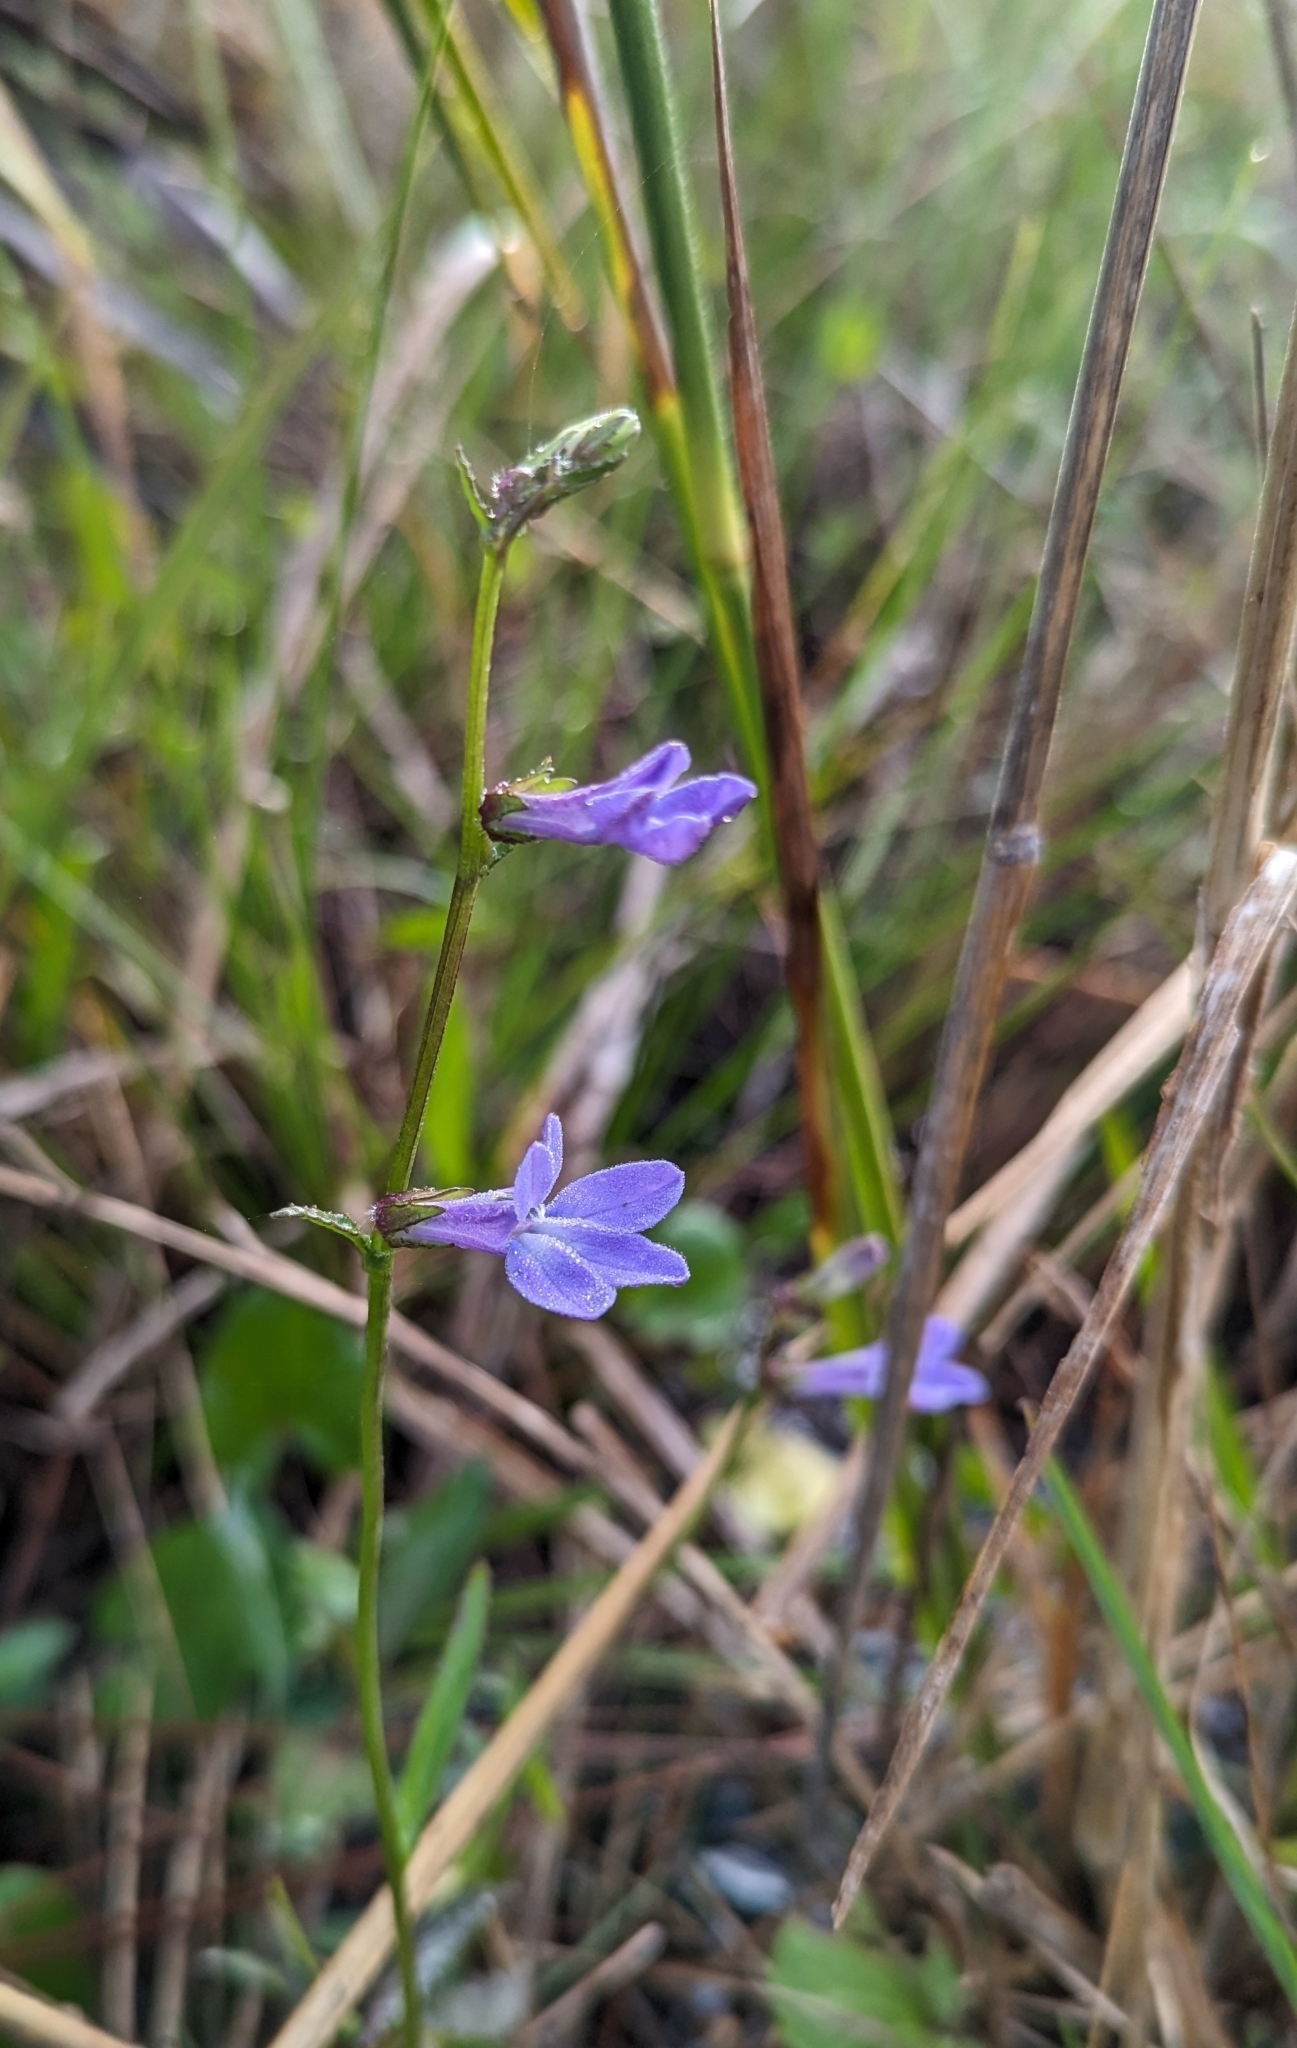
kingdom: Plantae
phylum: Tracheophyta
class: Magnoliopsida
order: Asterales
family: Campanulaceae
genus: Lobelia
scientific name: Lobelia glandulosa
